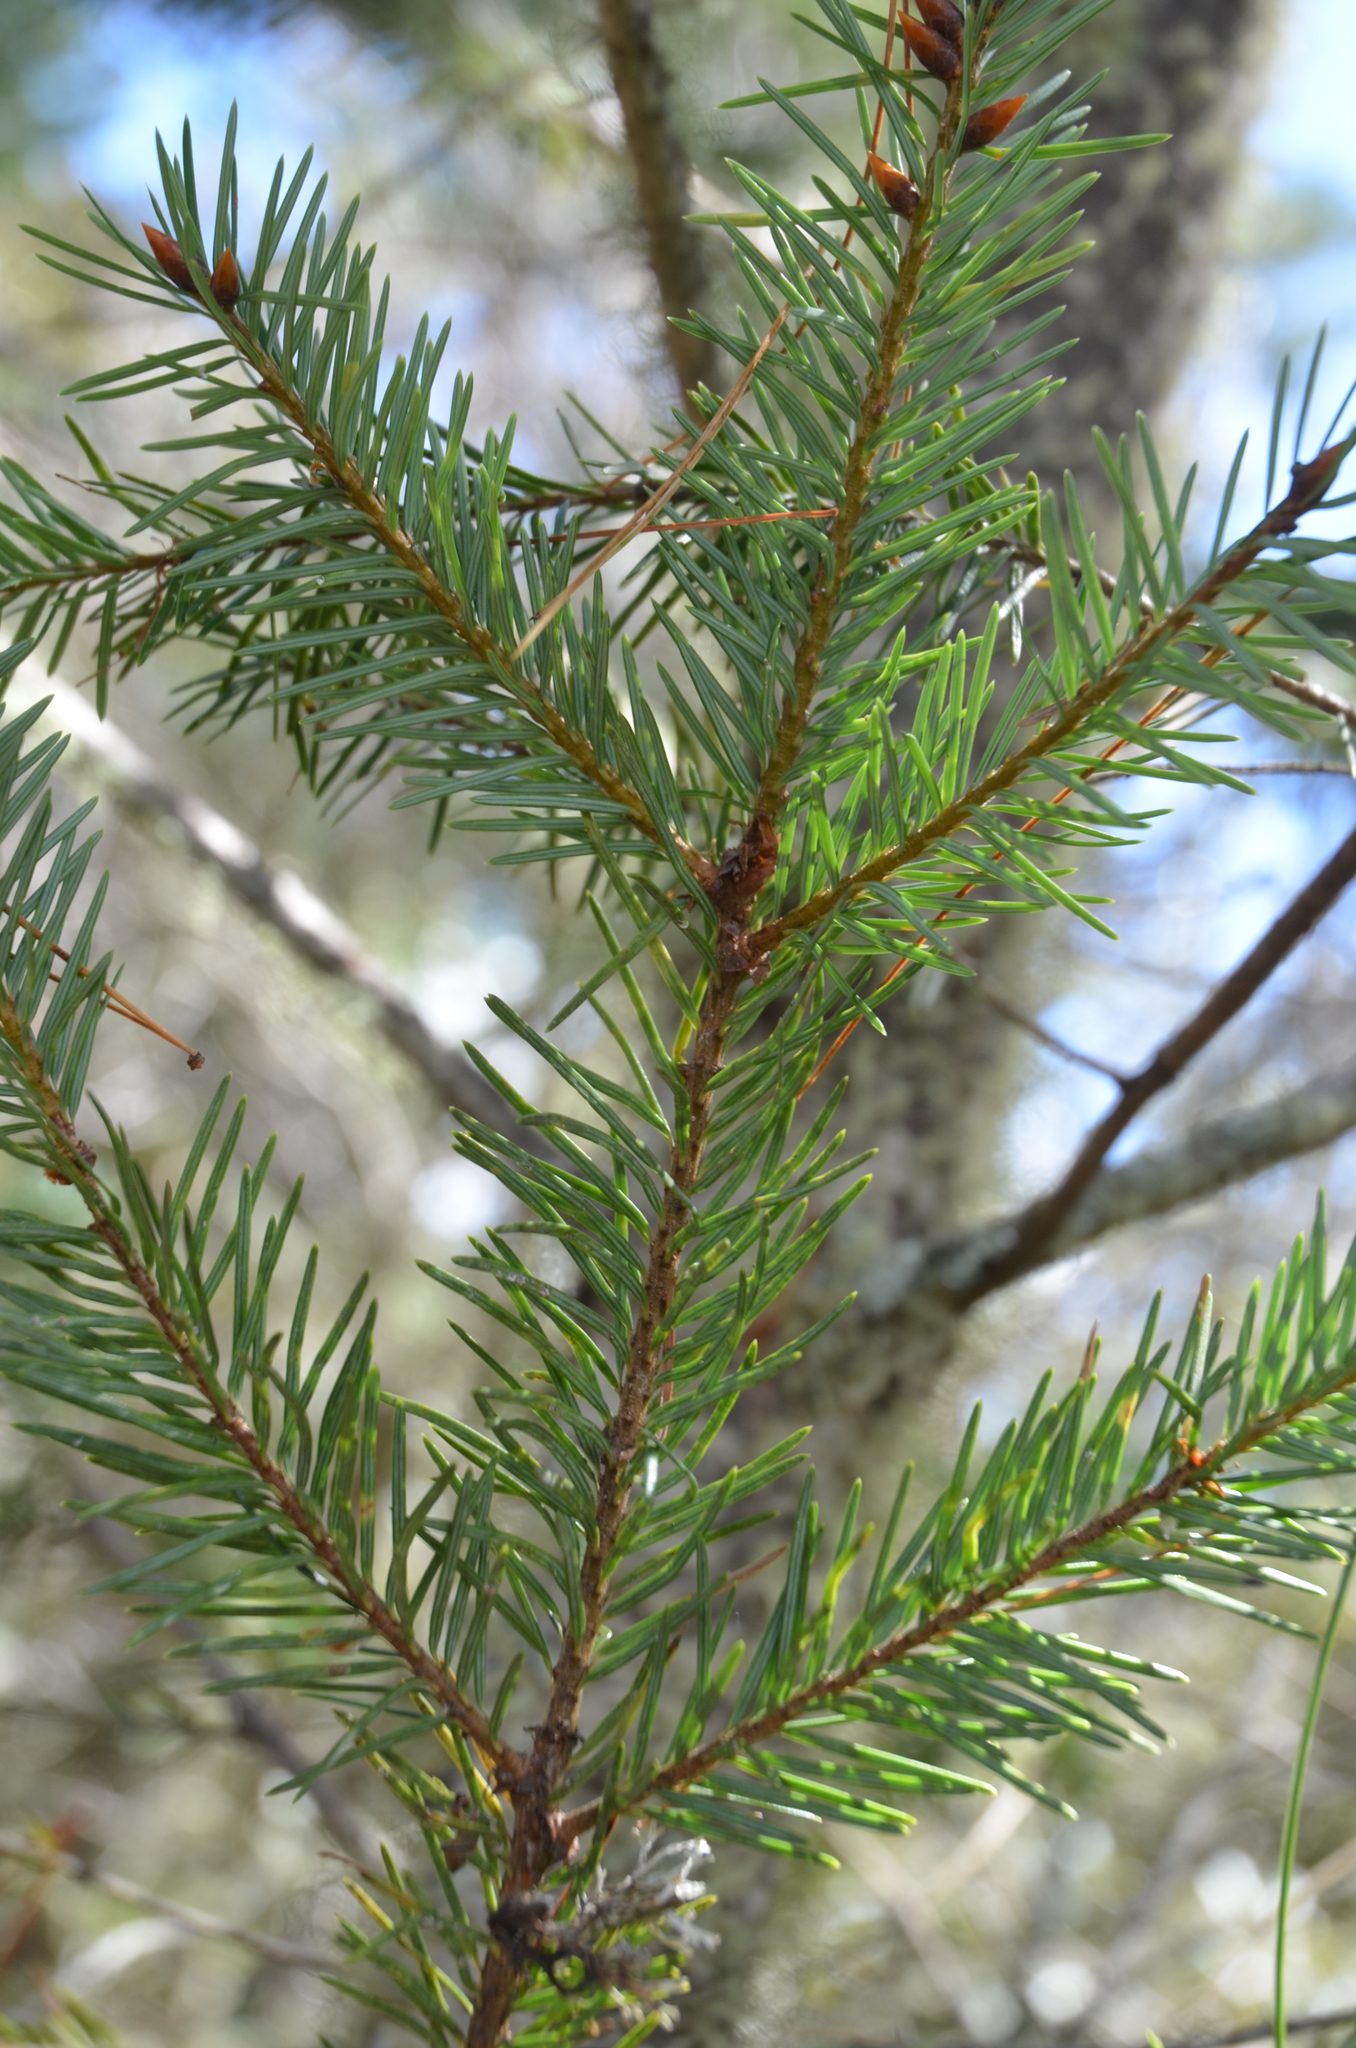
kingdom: Plantae
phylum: Tracheophyta
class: Pinopsida
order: Pinales
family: Pinaceae
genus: Pseudotsuga
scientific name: Pseudotsuga menziesii
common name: Douglas fir
